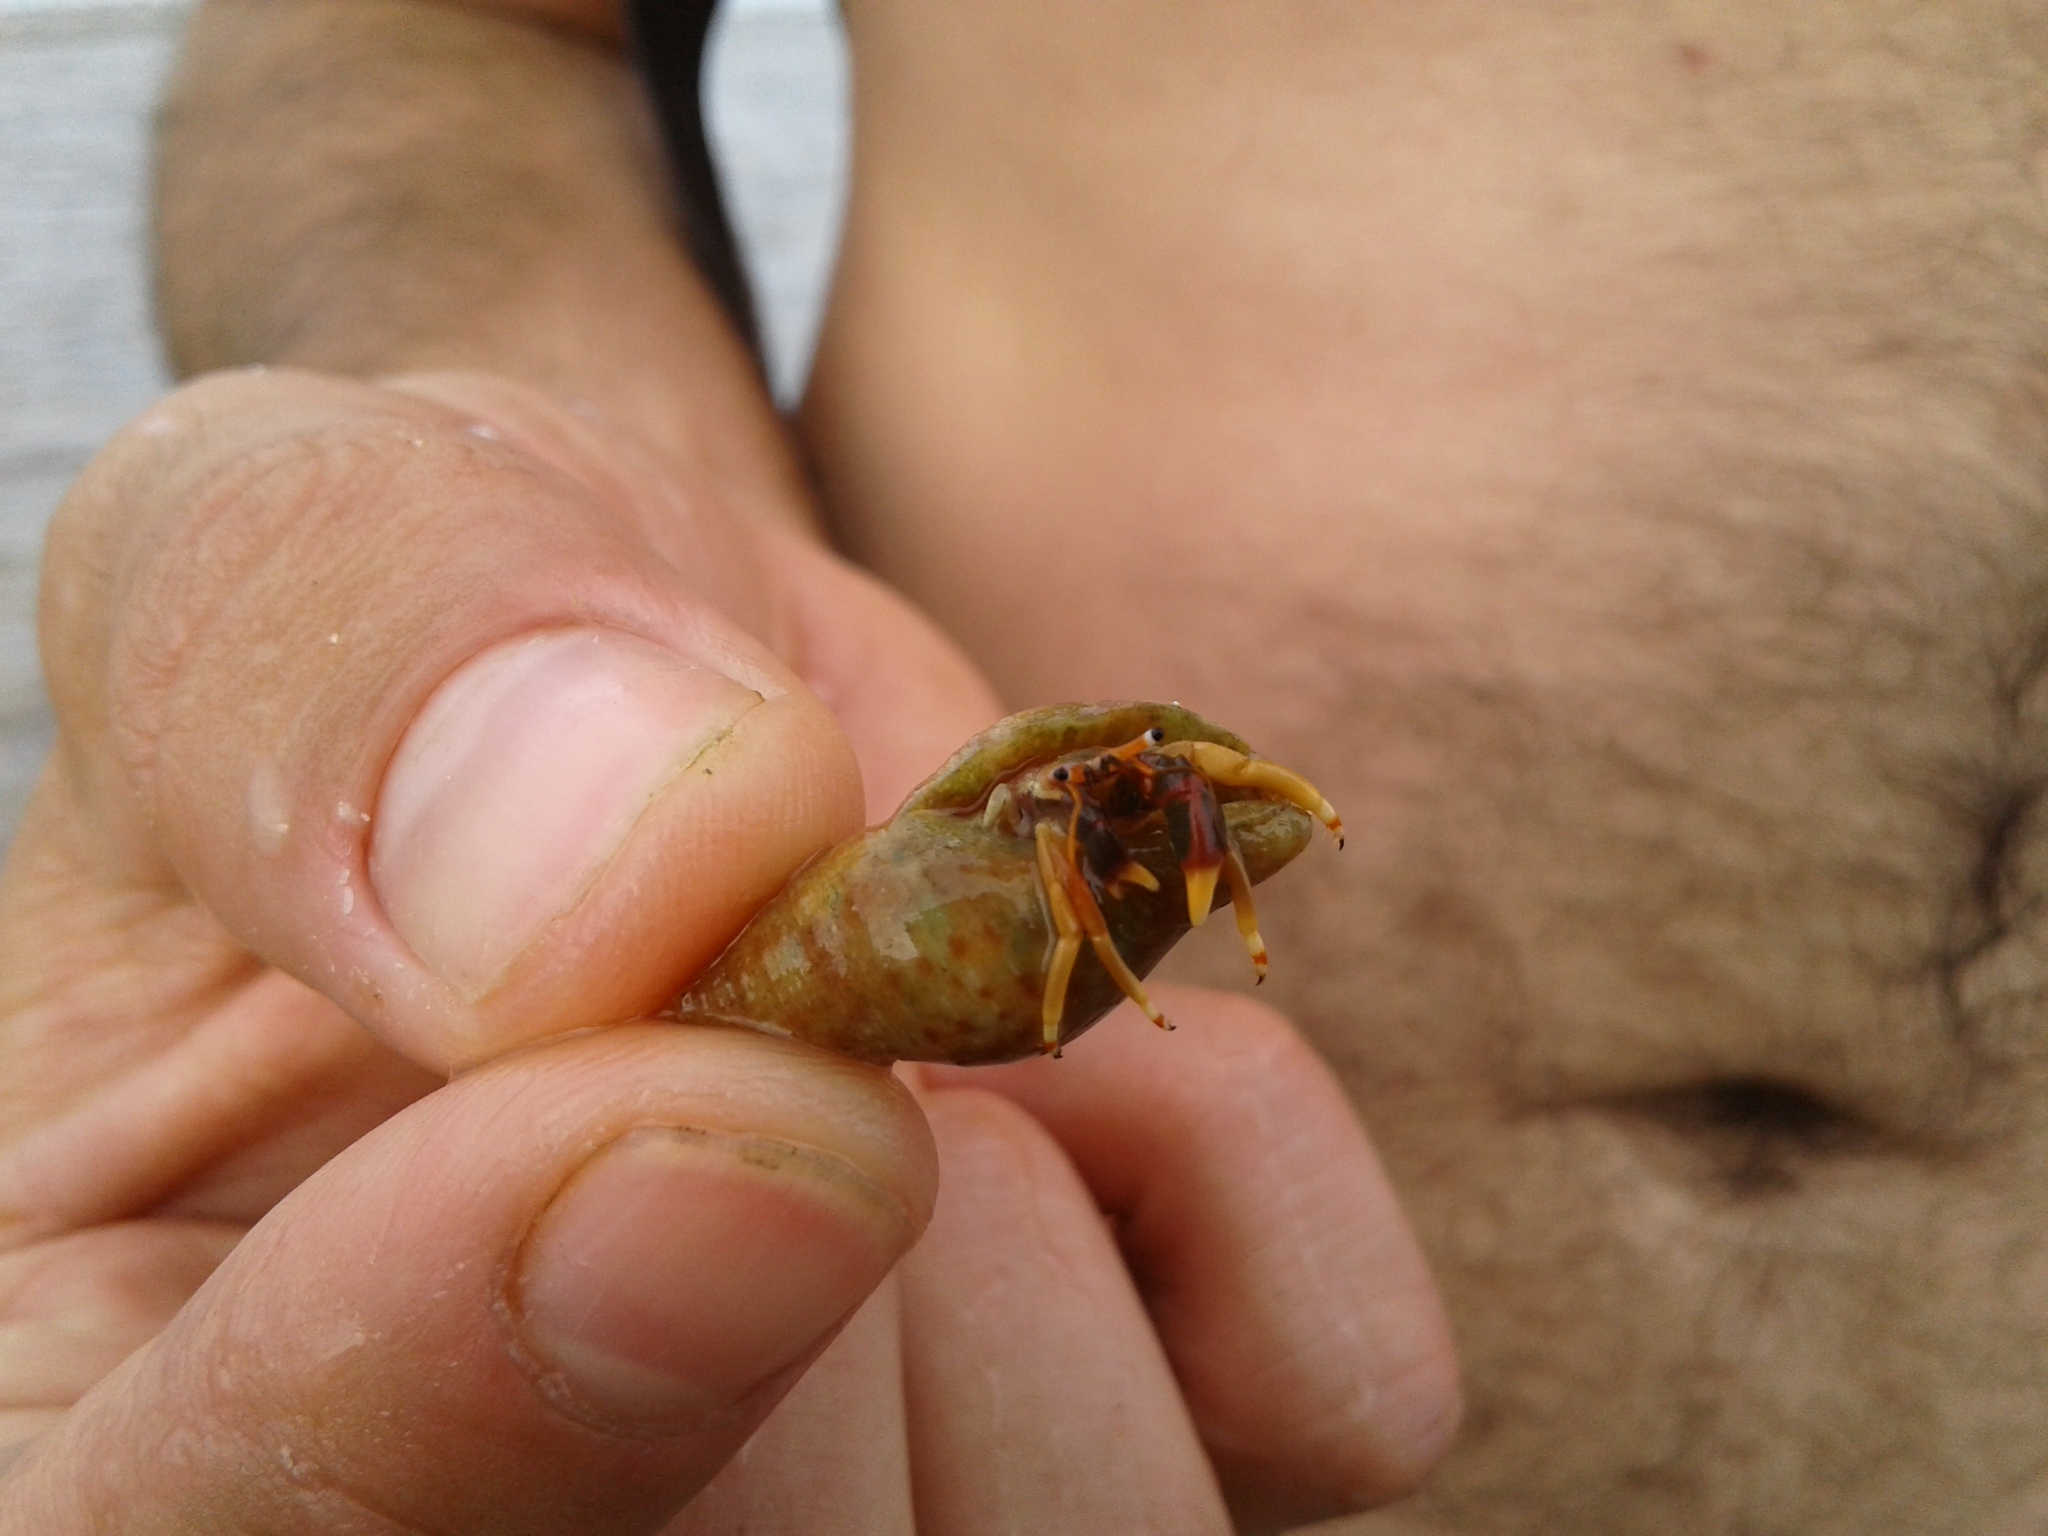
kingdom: Animalia
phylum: Arthropoda
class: Malacostraca
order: Decapoda
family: Diogenidae
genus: Calcinus
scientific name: Calcinus tibicen
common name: Orangeclaw hermit
